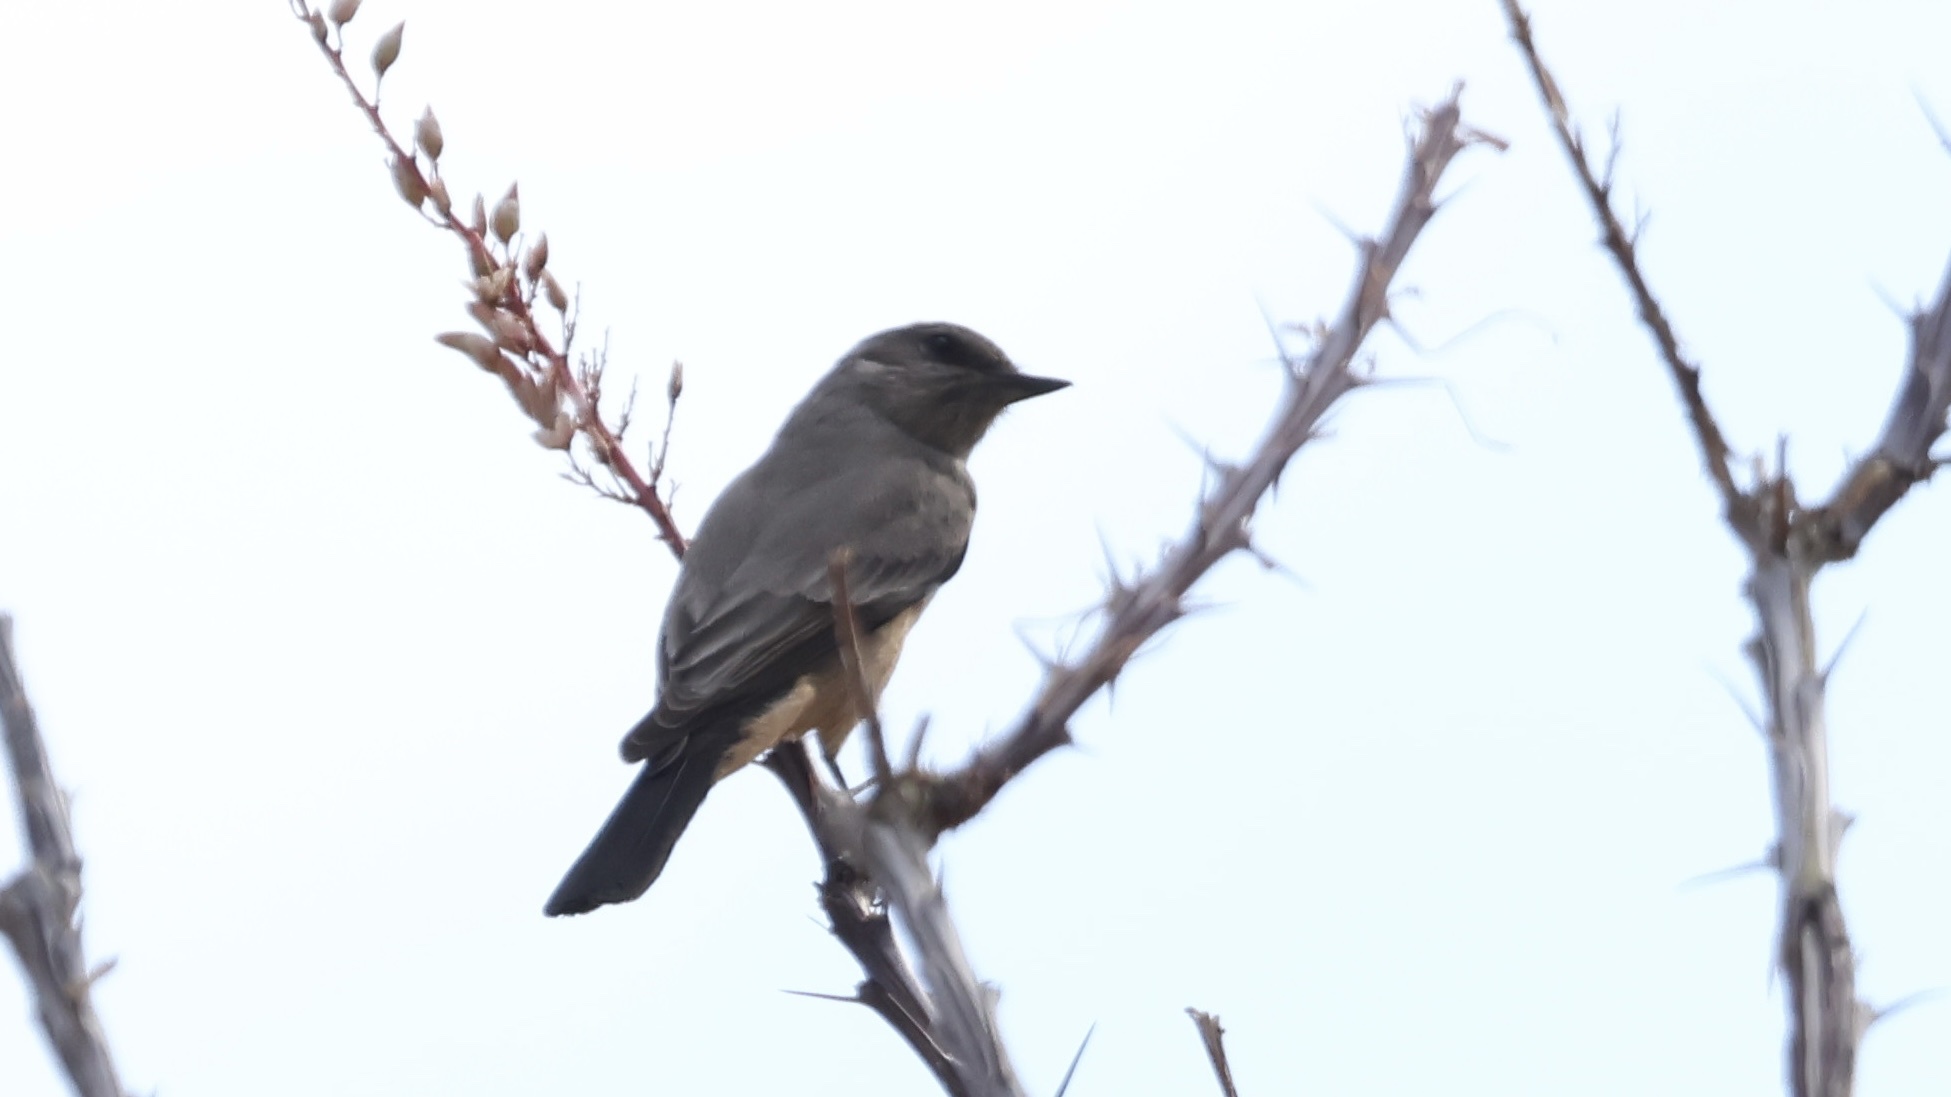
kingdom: Animalia
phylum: Chordata
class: Aves
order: Passeriformes
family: Tyrannidae
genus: Sayornis
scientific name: Sayornis saya
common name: Say's phoebe
